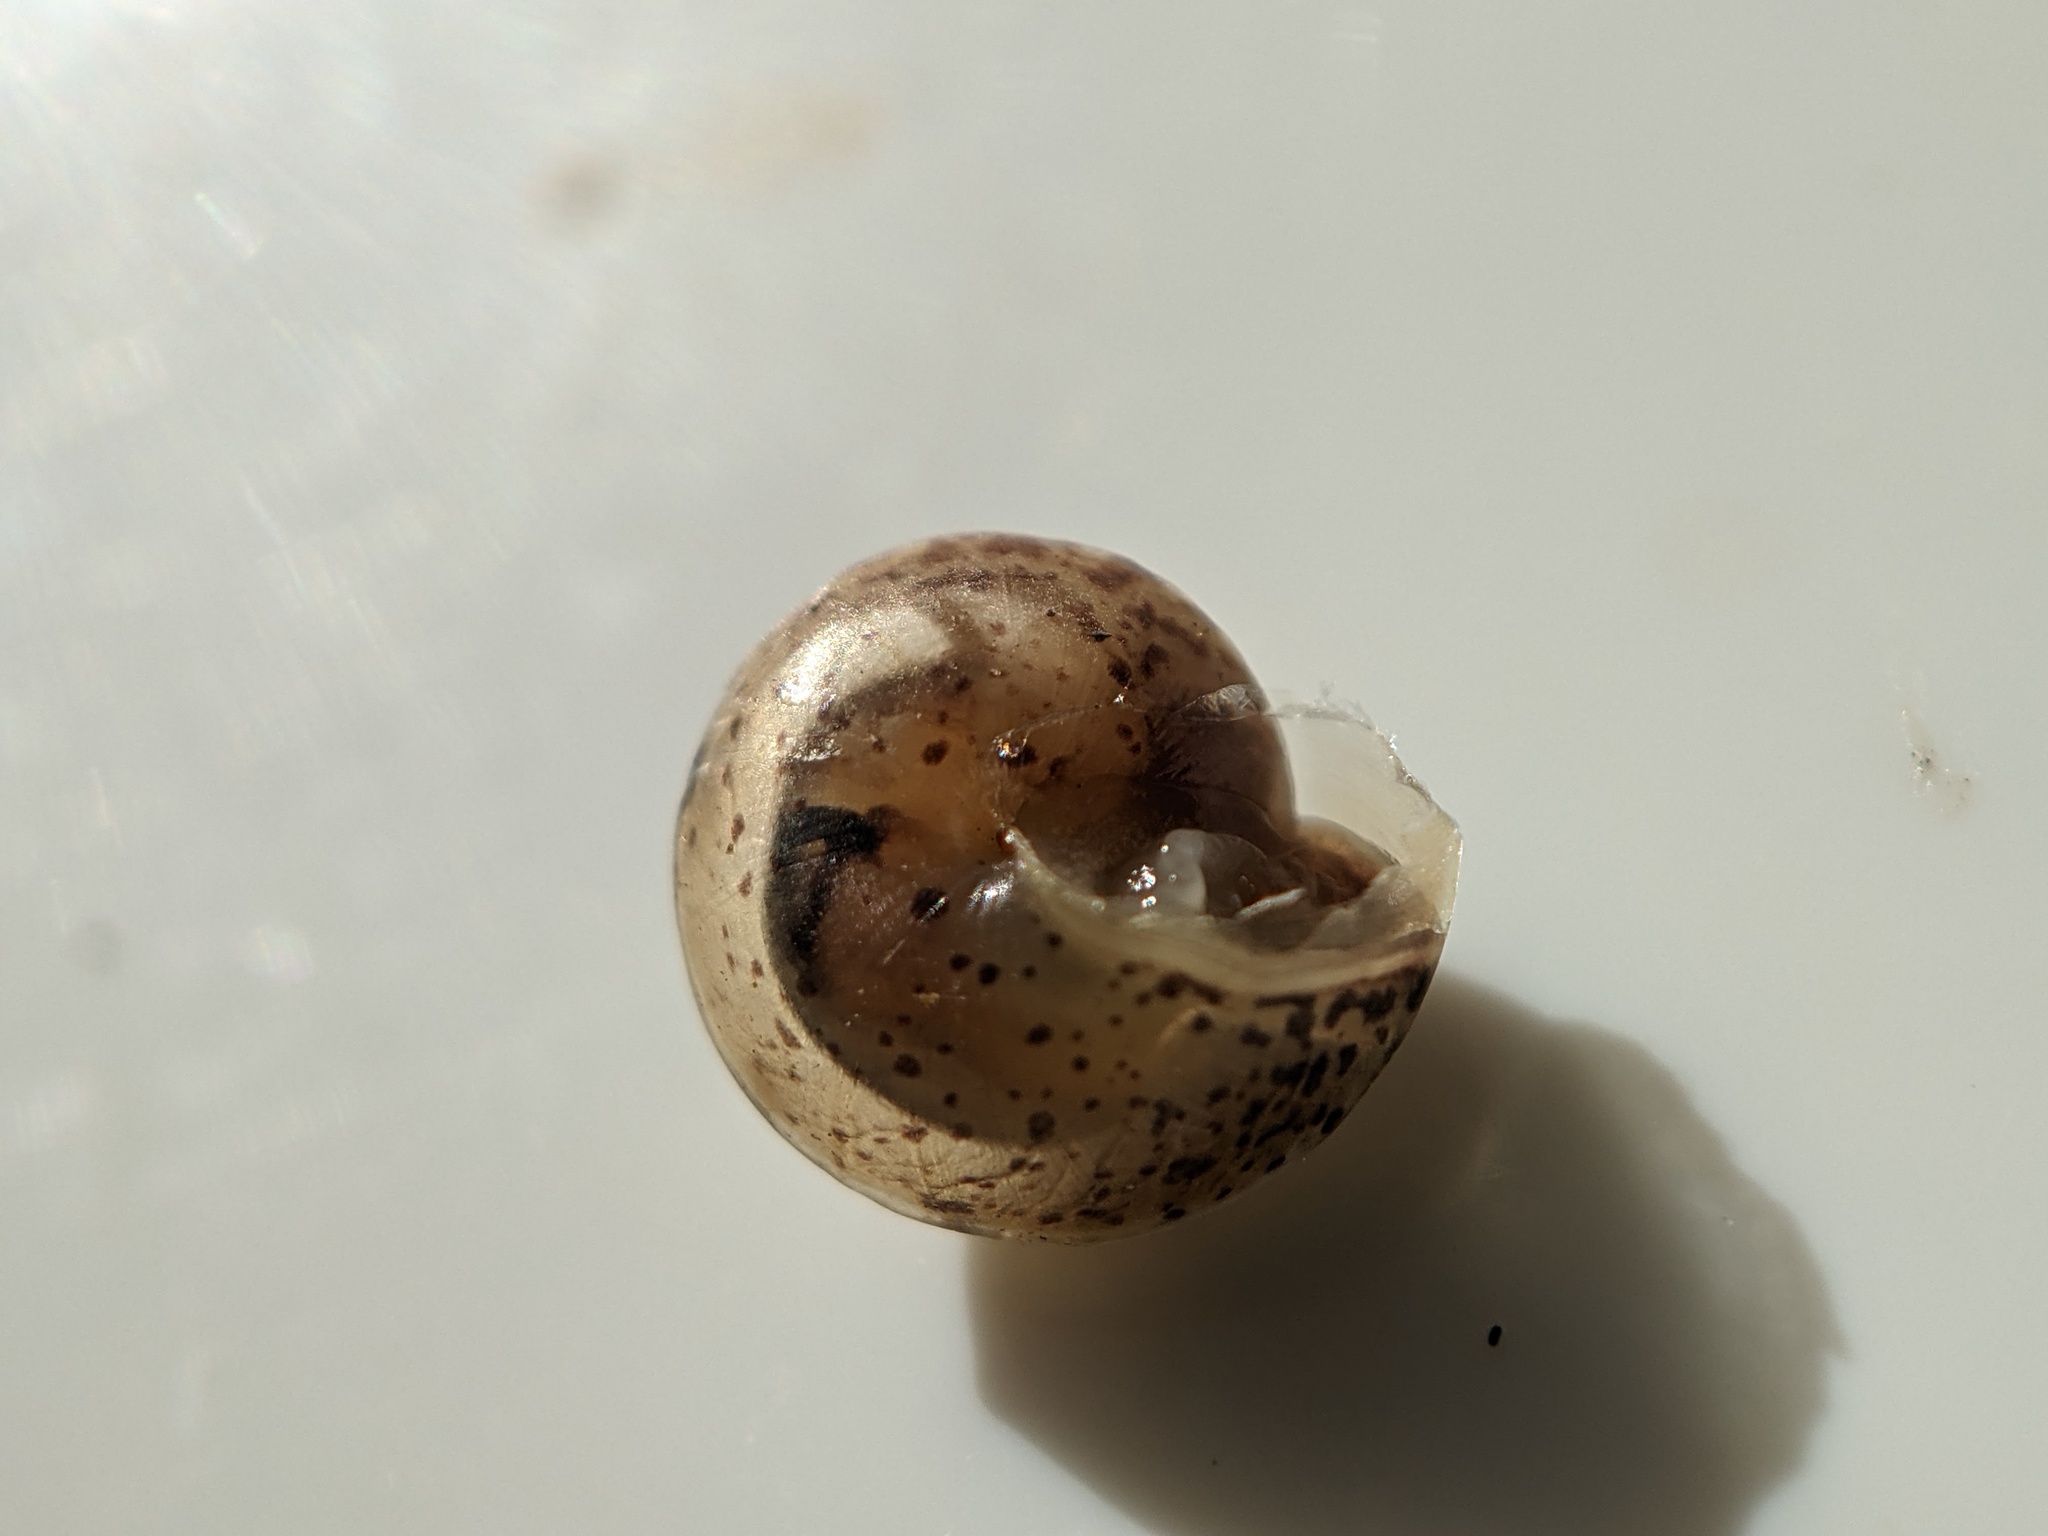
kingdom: Animalia
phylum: Mollusca
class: Gastropoda
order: Stylommatophora
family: Hygromiidae
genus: Hygromia
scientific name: Hygromia cinctella
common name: Girdled snail
